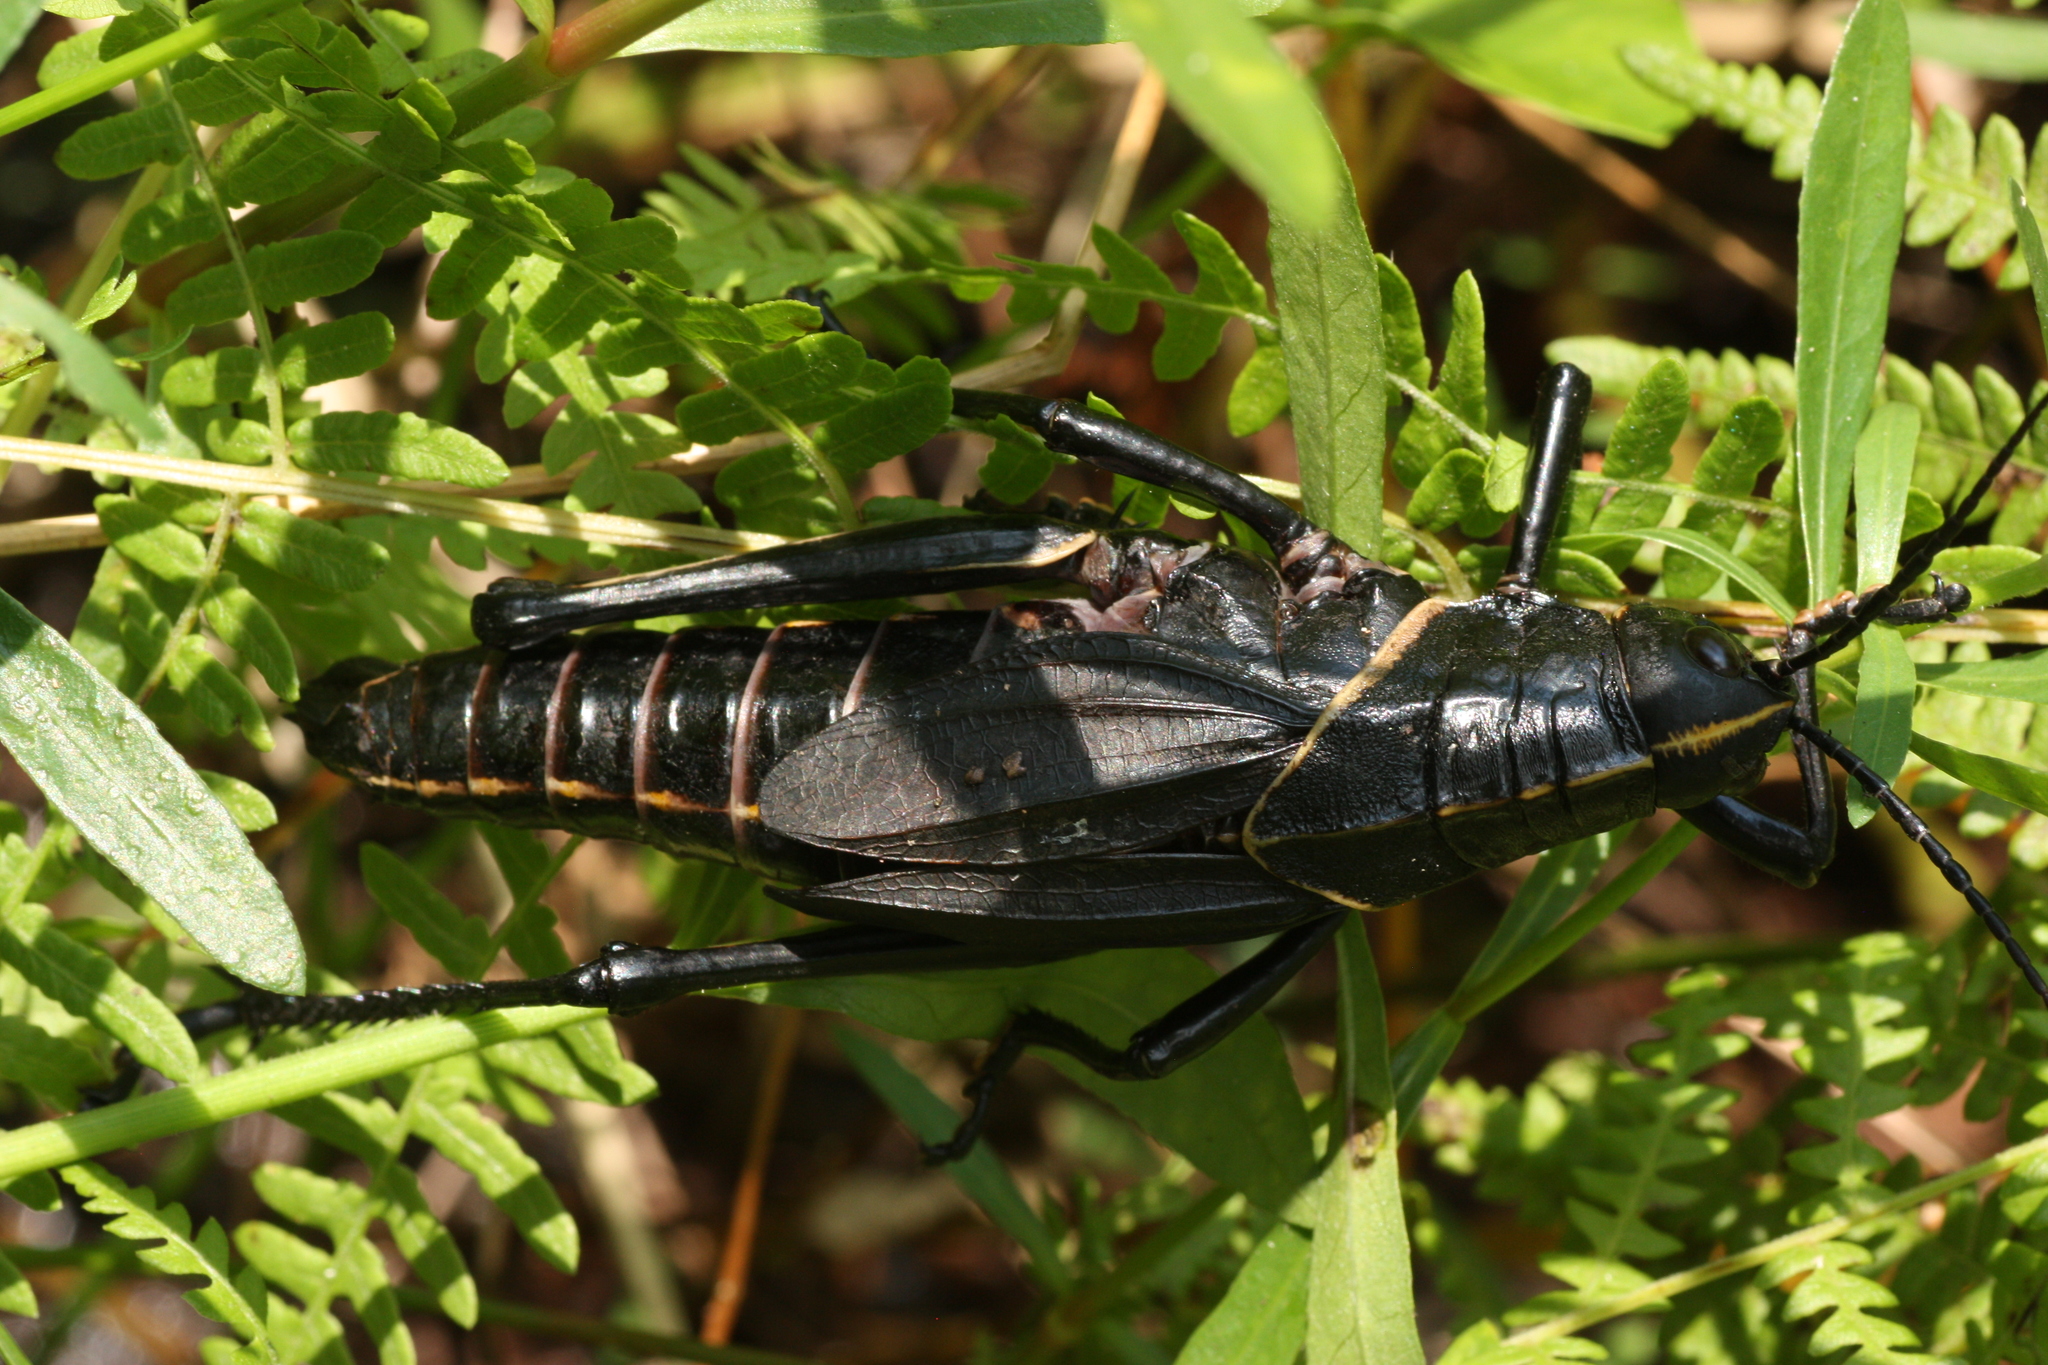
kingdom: Animalia
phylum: Arthropoda
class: Insecta
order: Orthoptera
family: Romaleidae
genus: Romalea
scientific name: Romalea microptera
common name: Eastern lubber grasshopper
